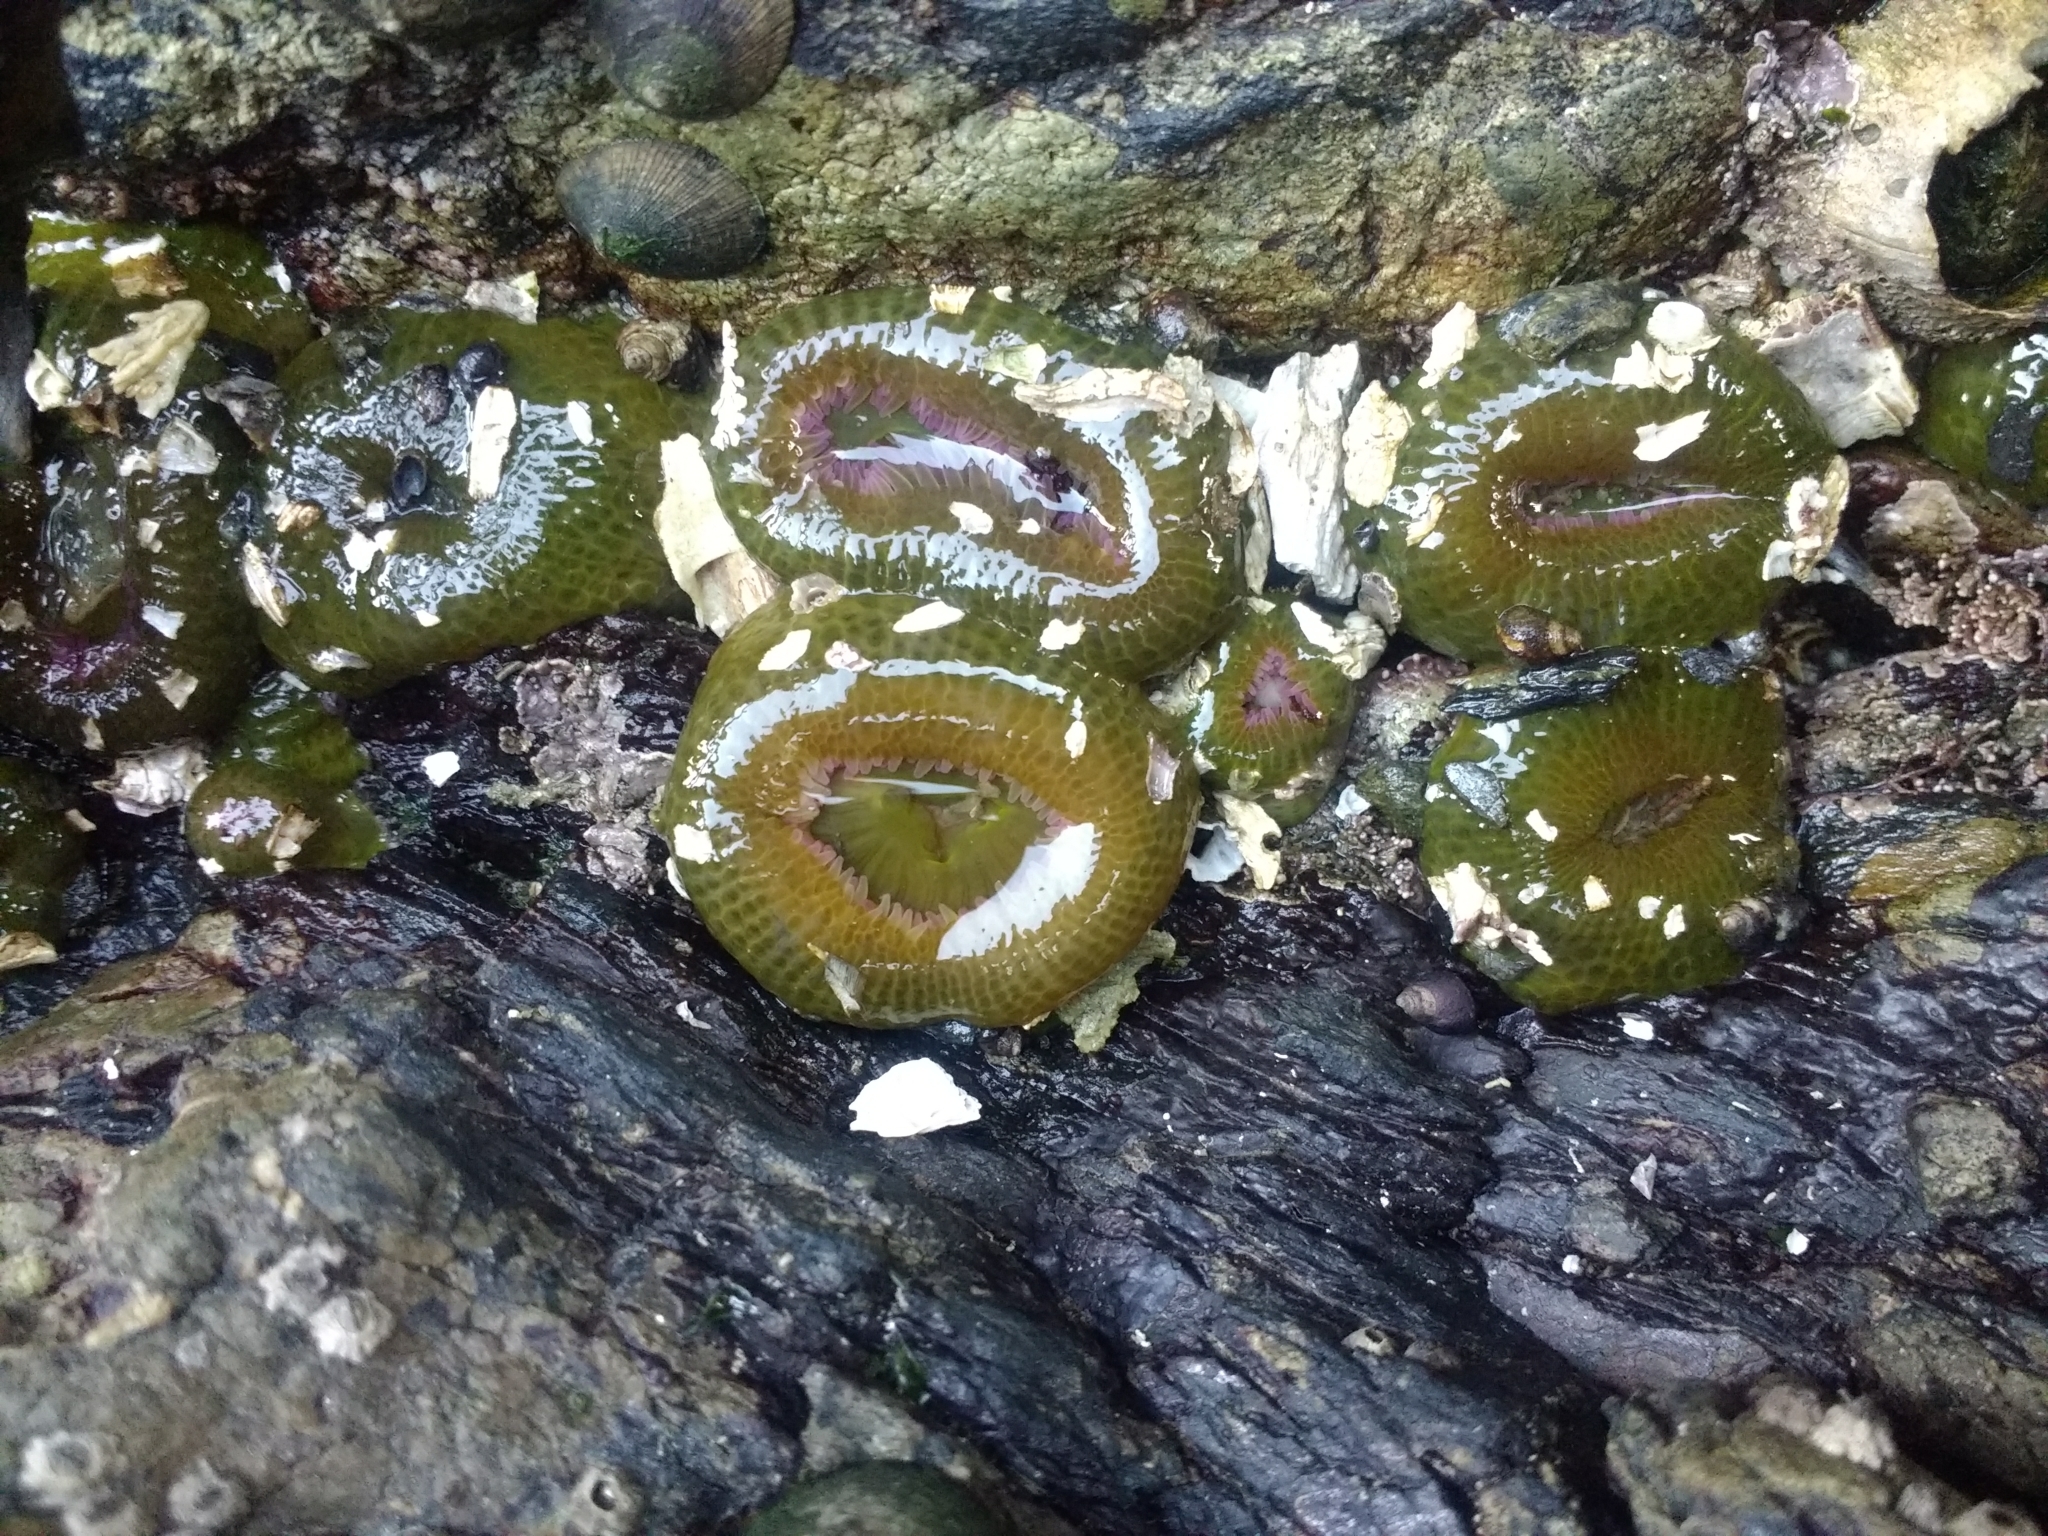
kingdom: Animalia
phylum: Cnidaria
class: Anthozoa
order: Actiniaria
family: Actiniidae
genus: Anthopleura
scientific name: Anthopleura elegantissima
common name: Clonal anemone
